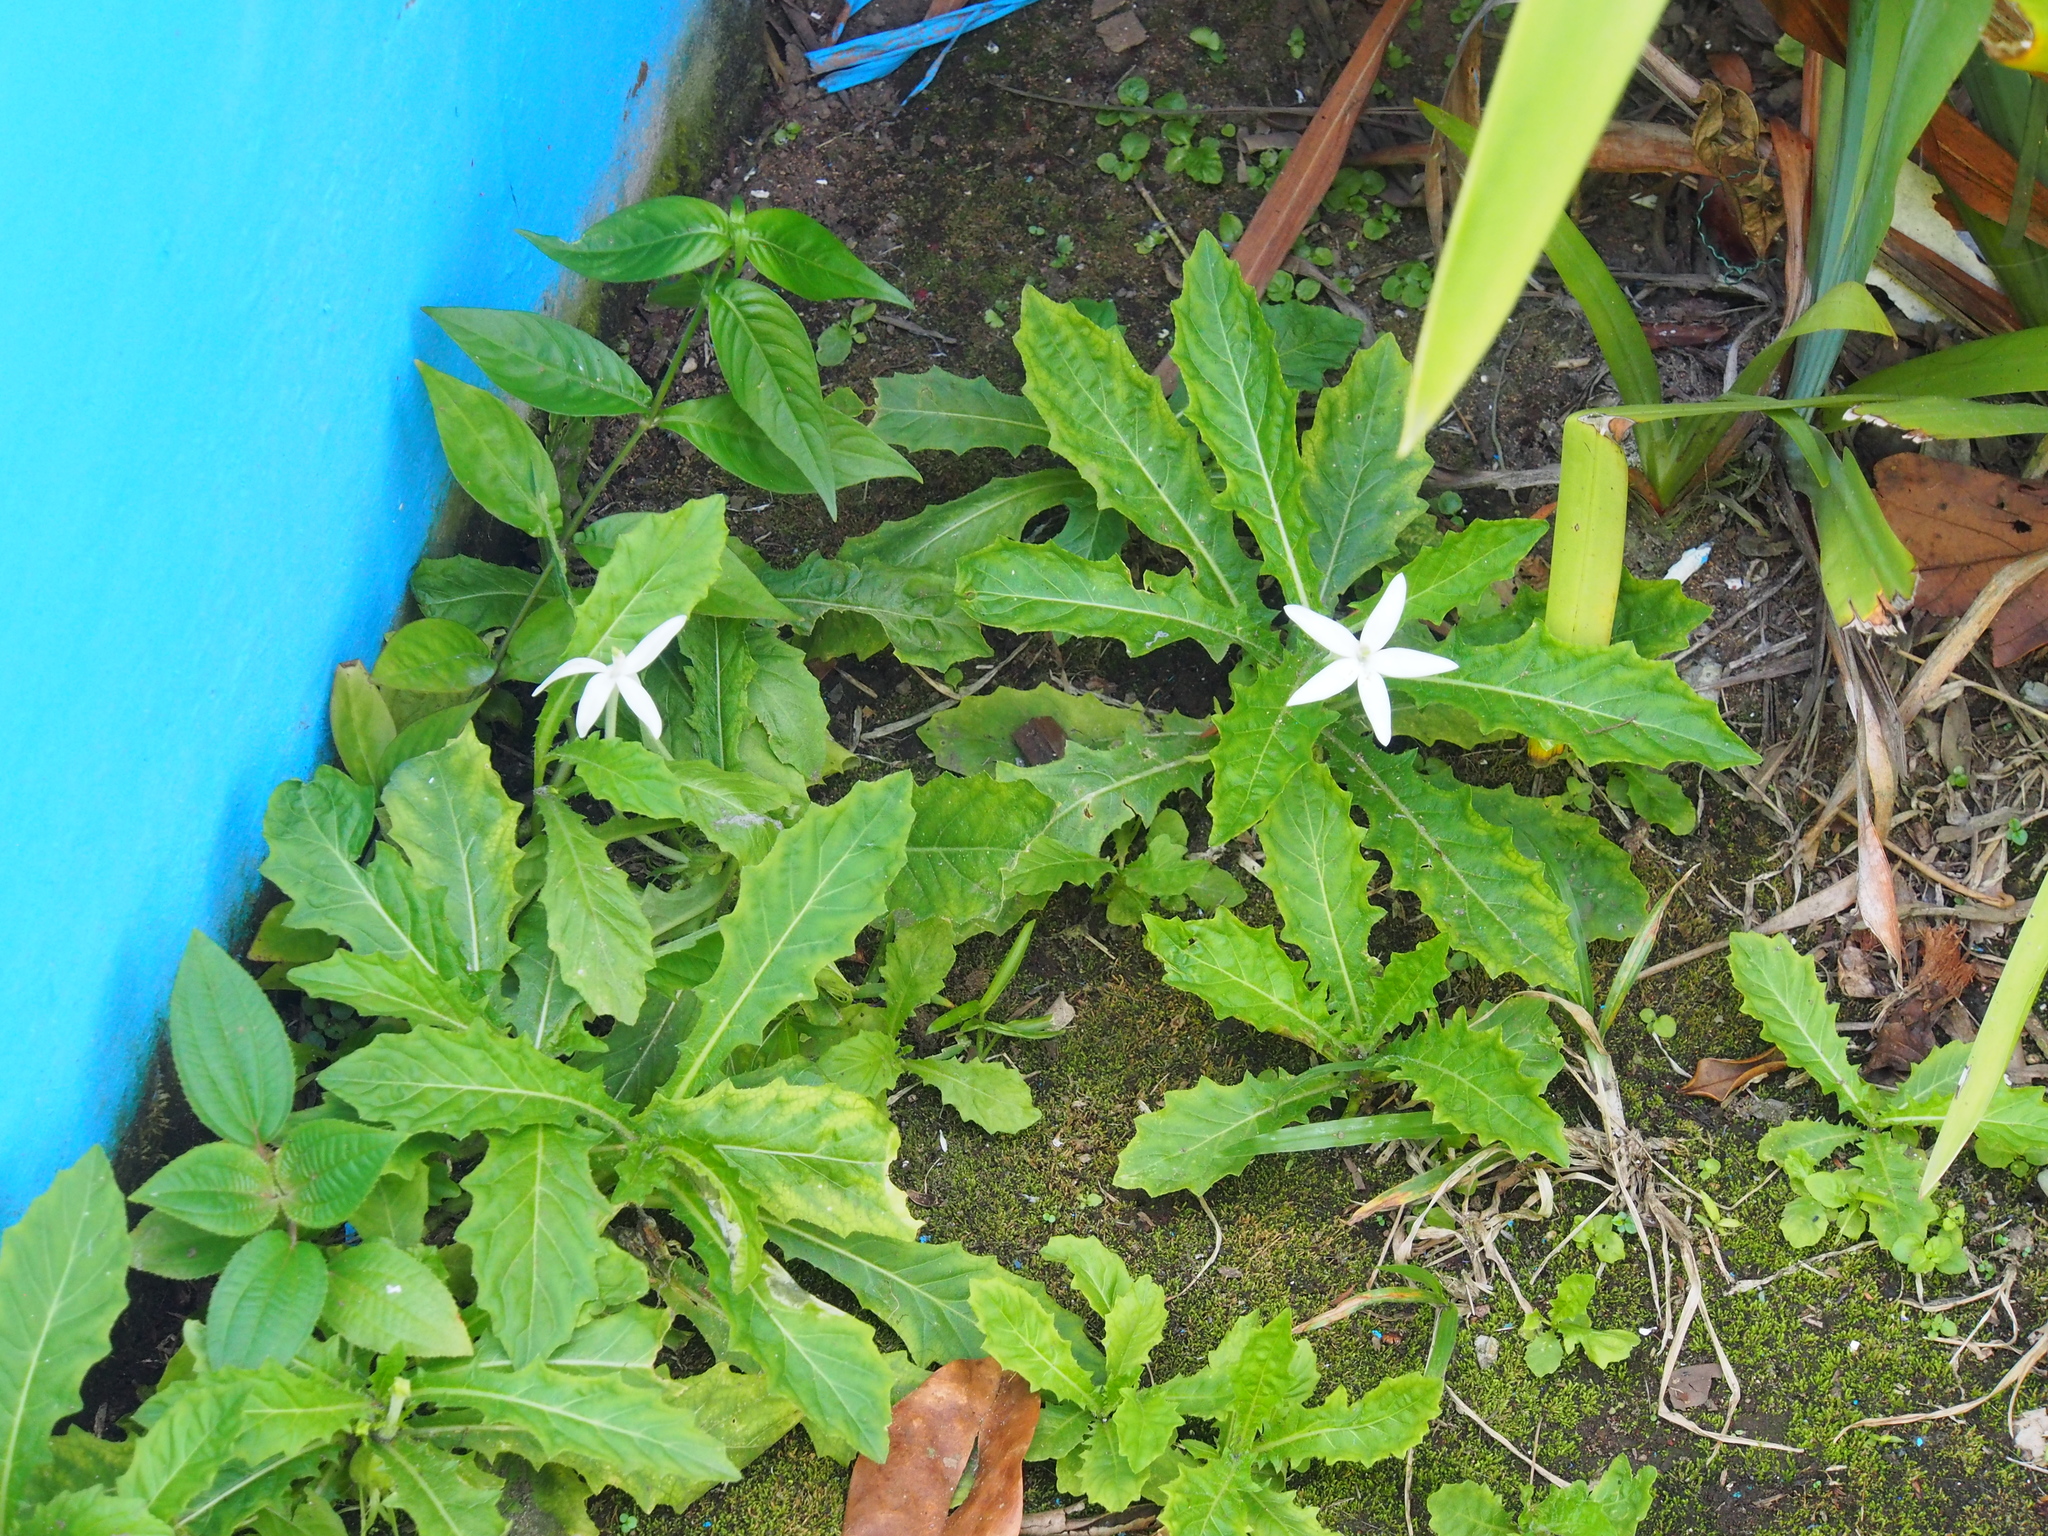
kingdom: Plantae
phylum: Tracheophyta
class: Magnoliopsida
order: Asterales
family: Campanulaceae
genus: Hippobroma
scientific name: Hippobroma longiflora
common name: Madamfate
